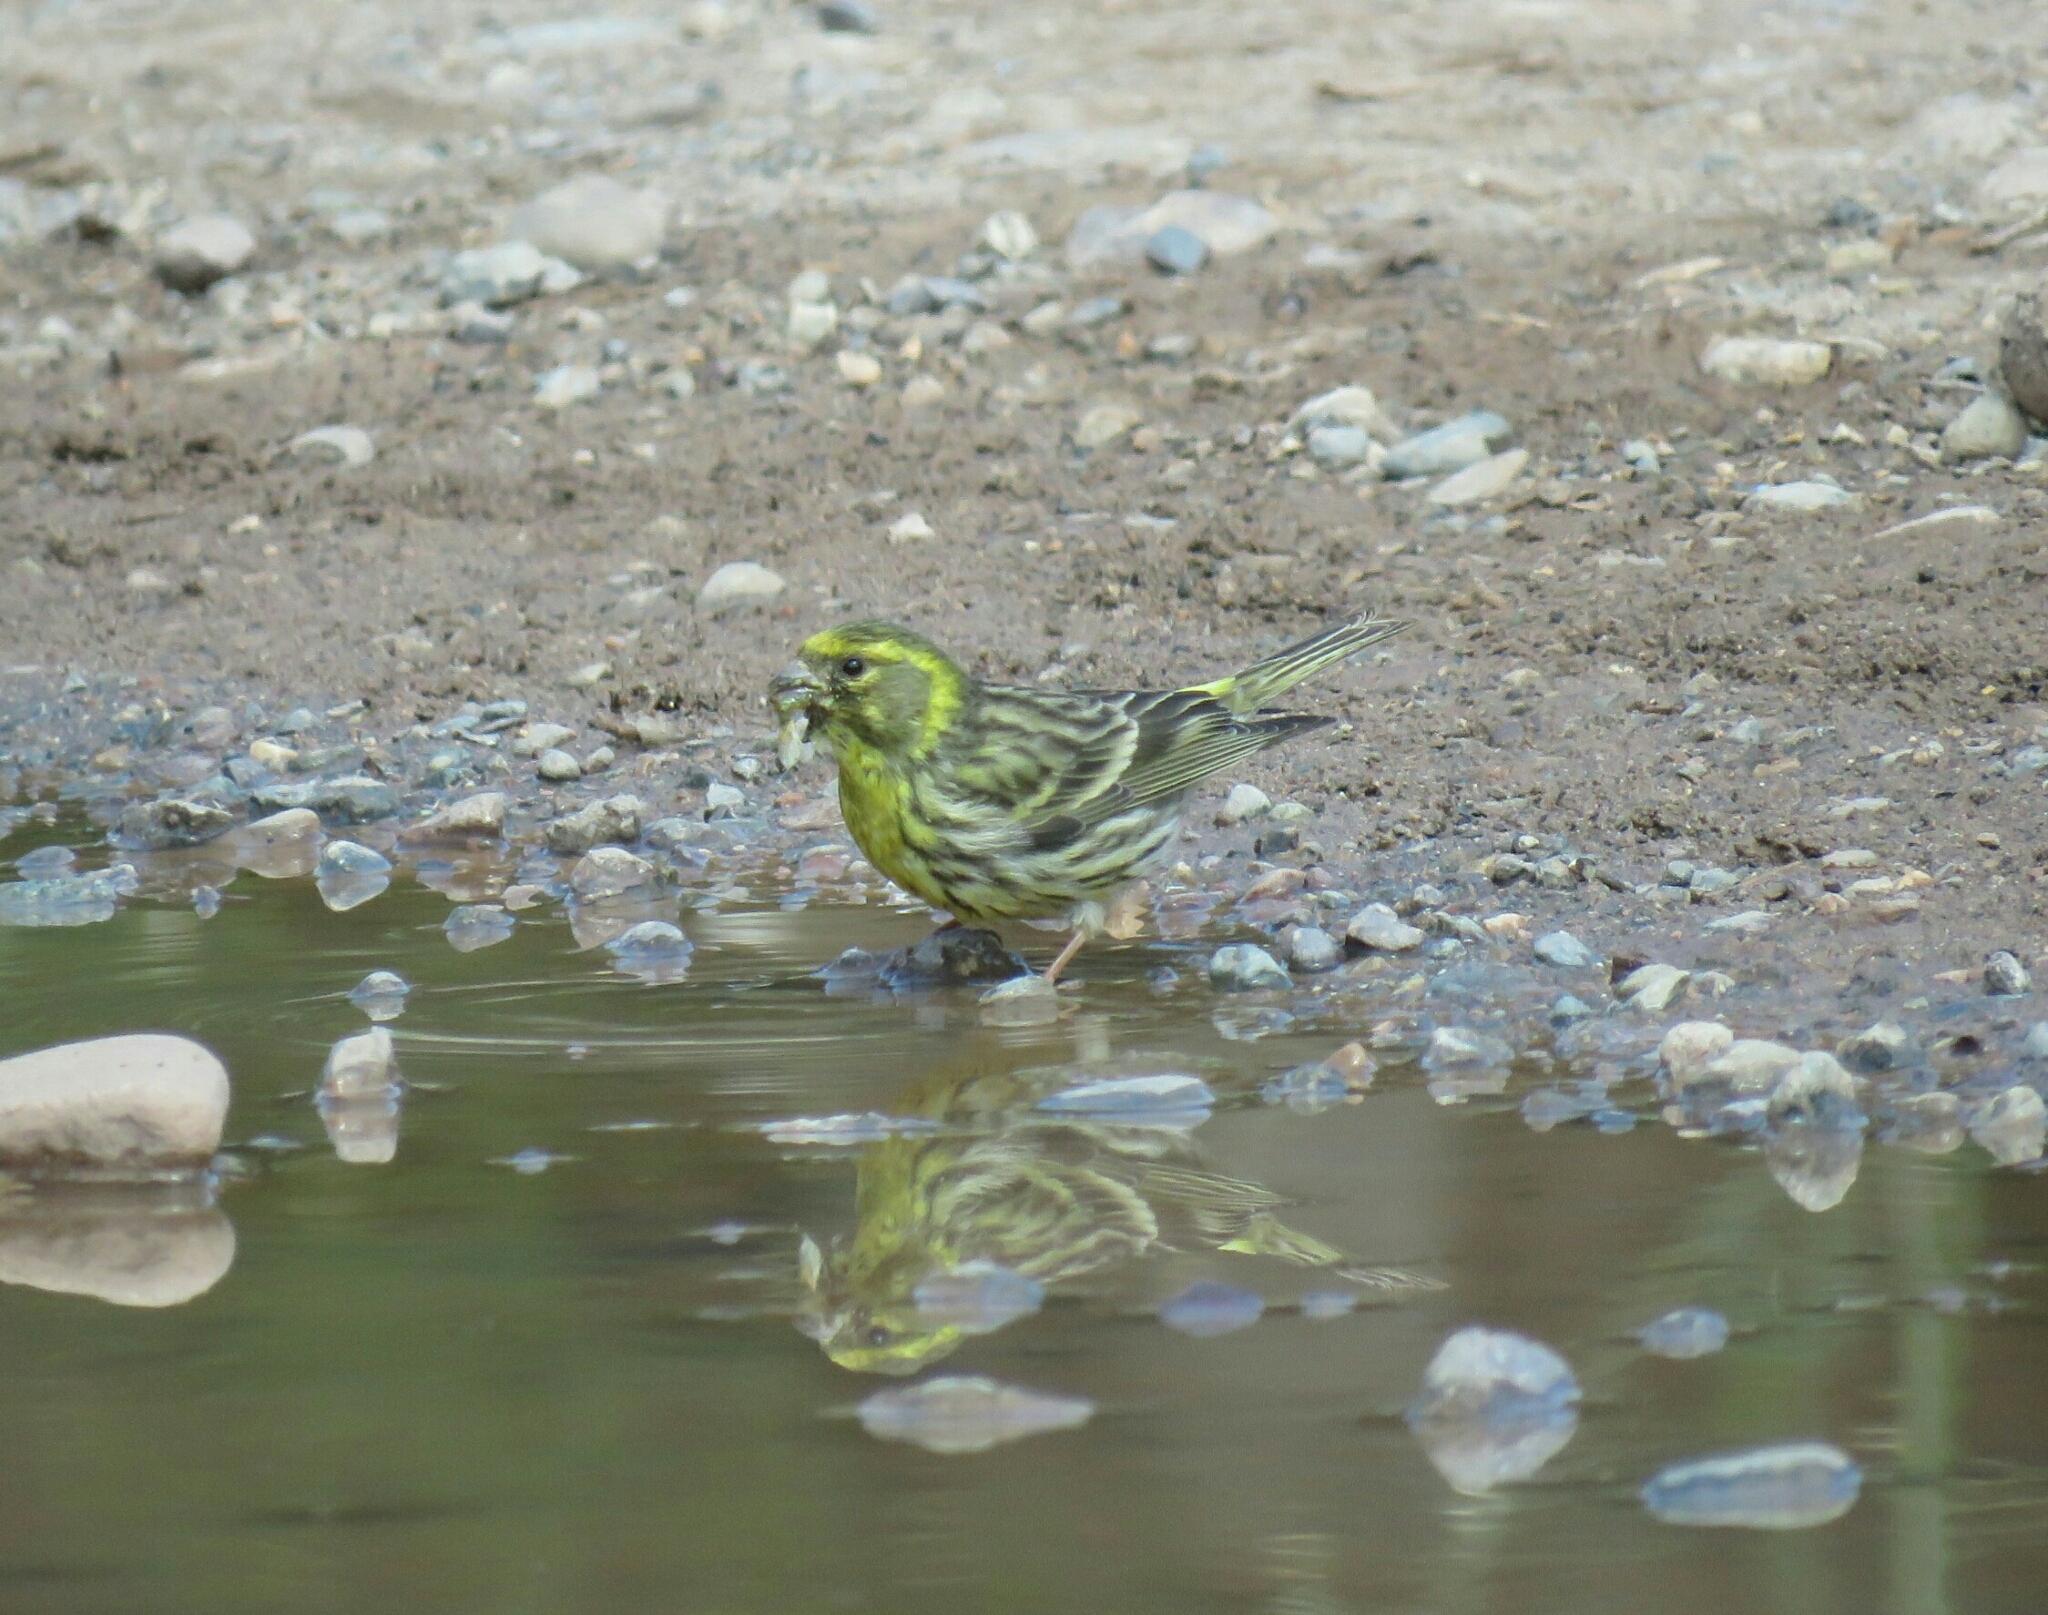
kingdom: Animalia
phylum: Chordata
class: Aves
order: Passeriformes
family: Fringillidae
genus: Serinus
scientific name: Serinus serinus
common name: European serin
